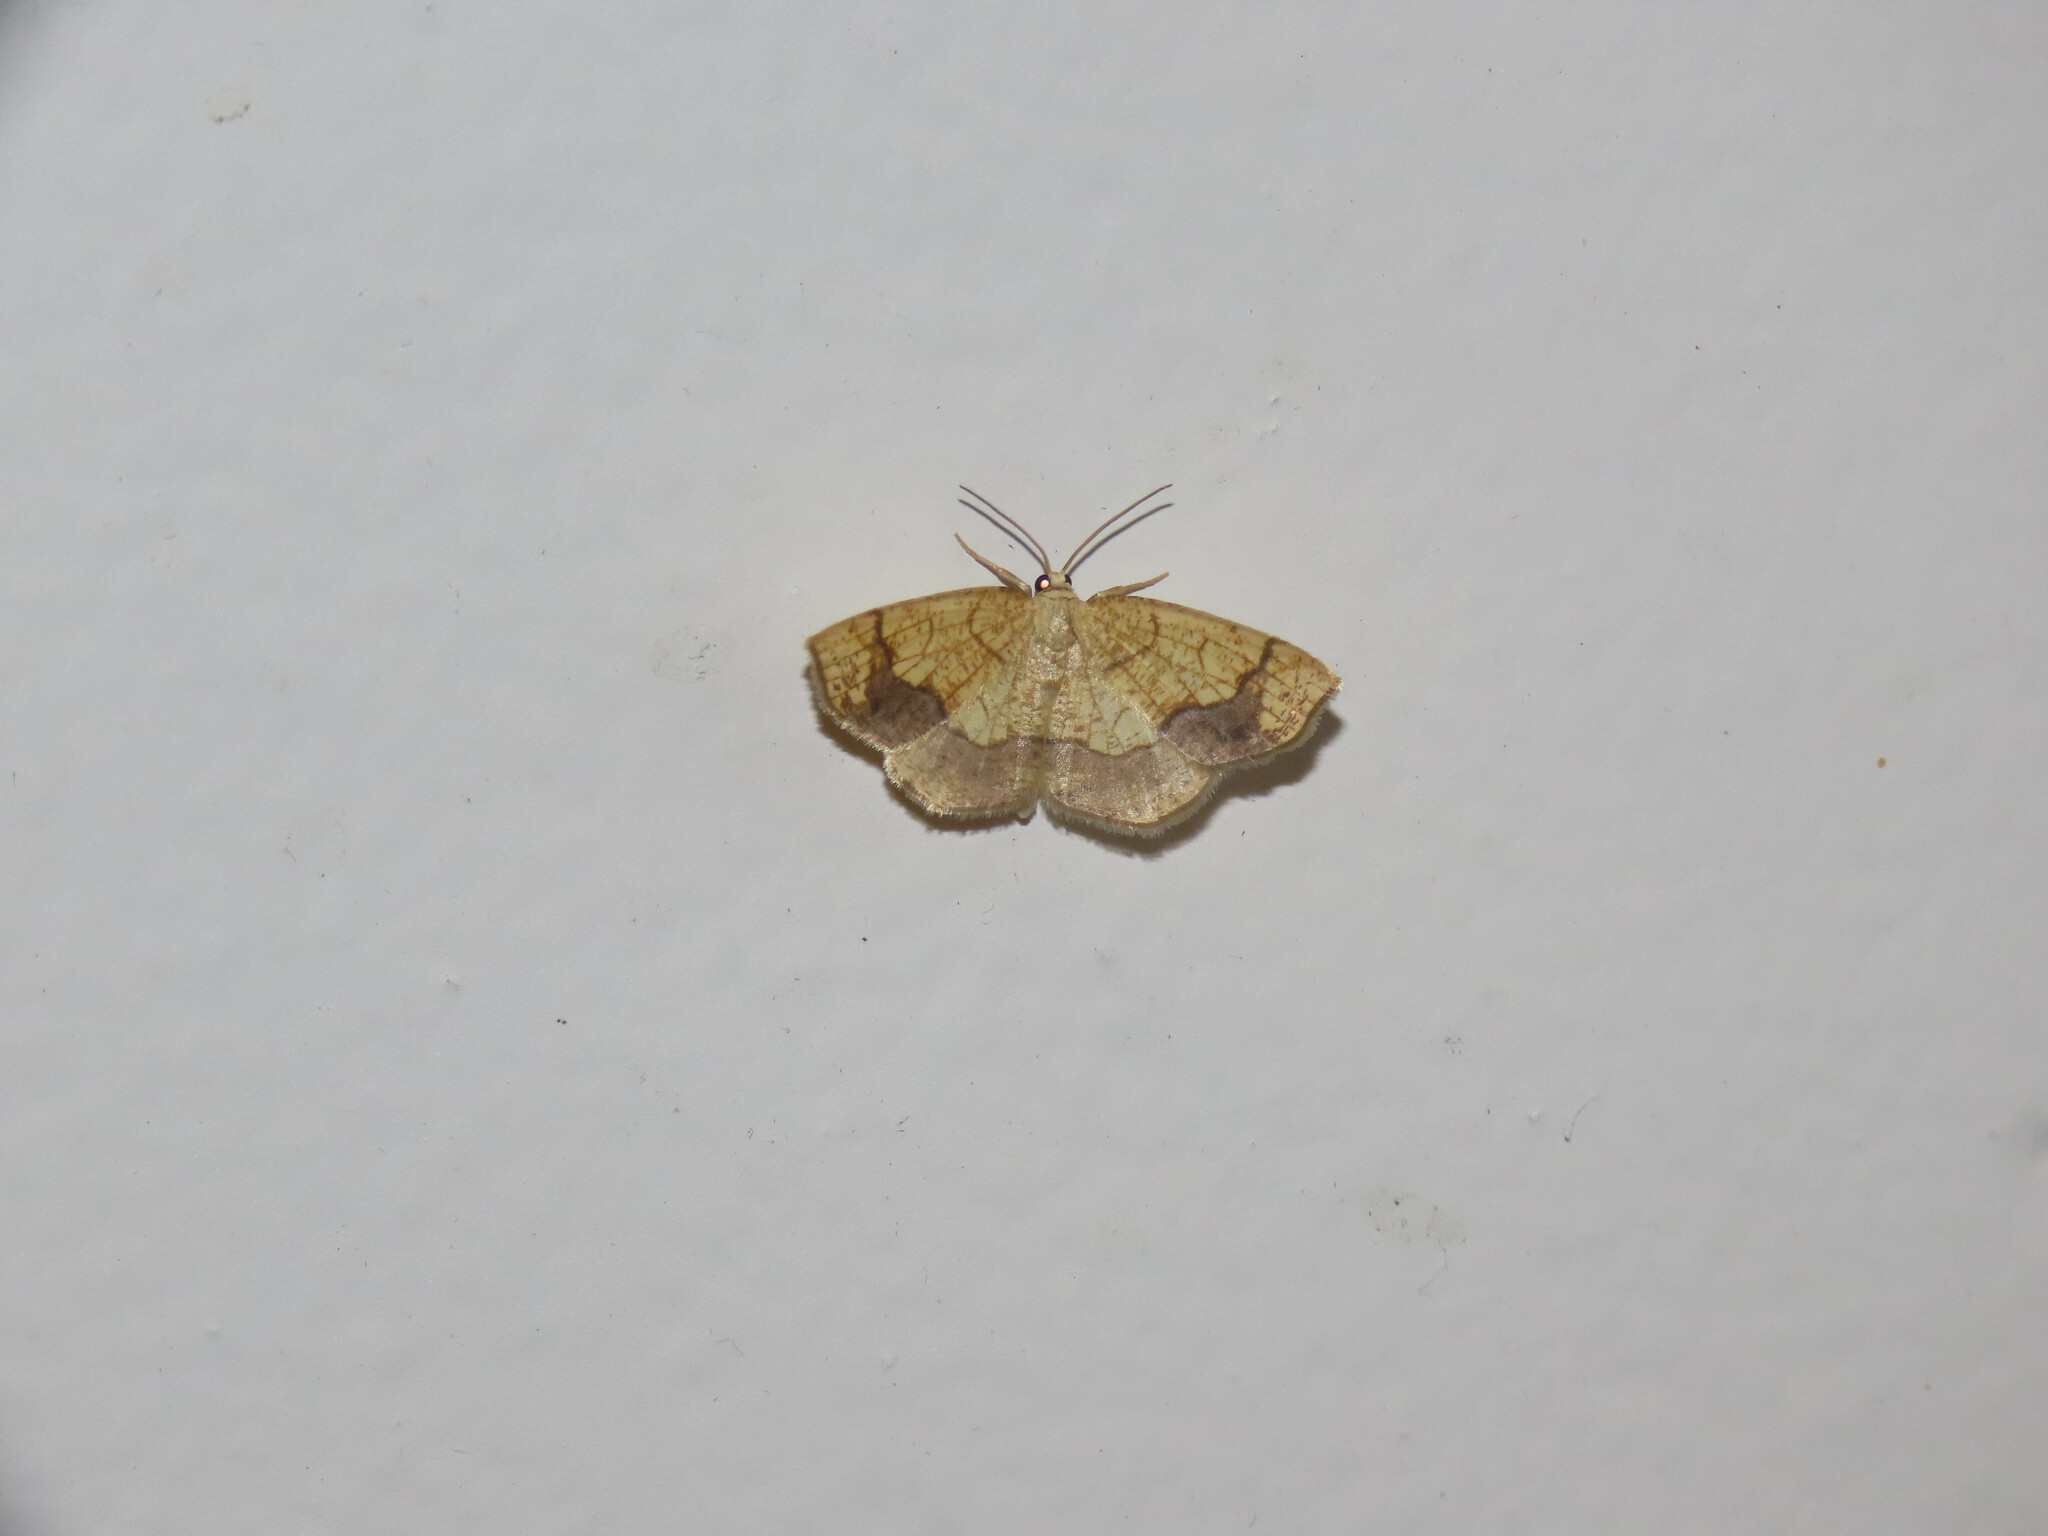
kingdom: Animalia
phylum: Arthropoda
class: Insecta
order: Lepidoptera
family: Geometridae
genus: Nematocampa
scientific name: Nematocampa resistaria
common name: Horned spanworm moth
